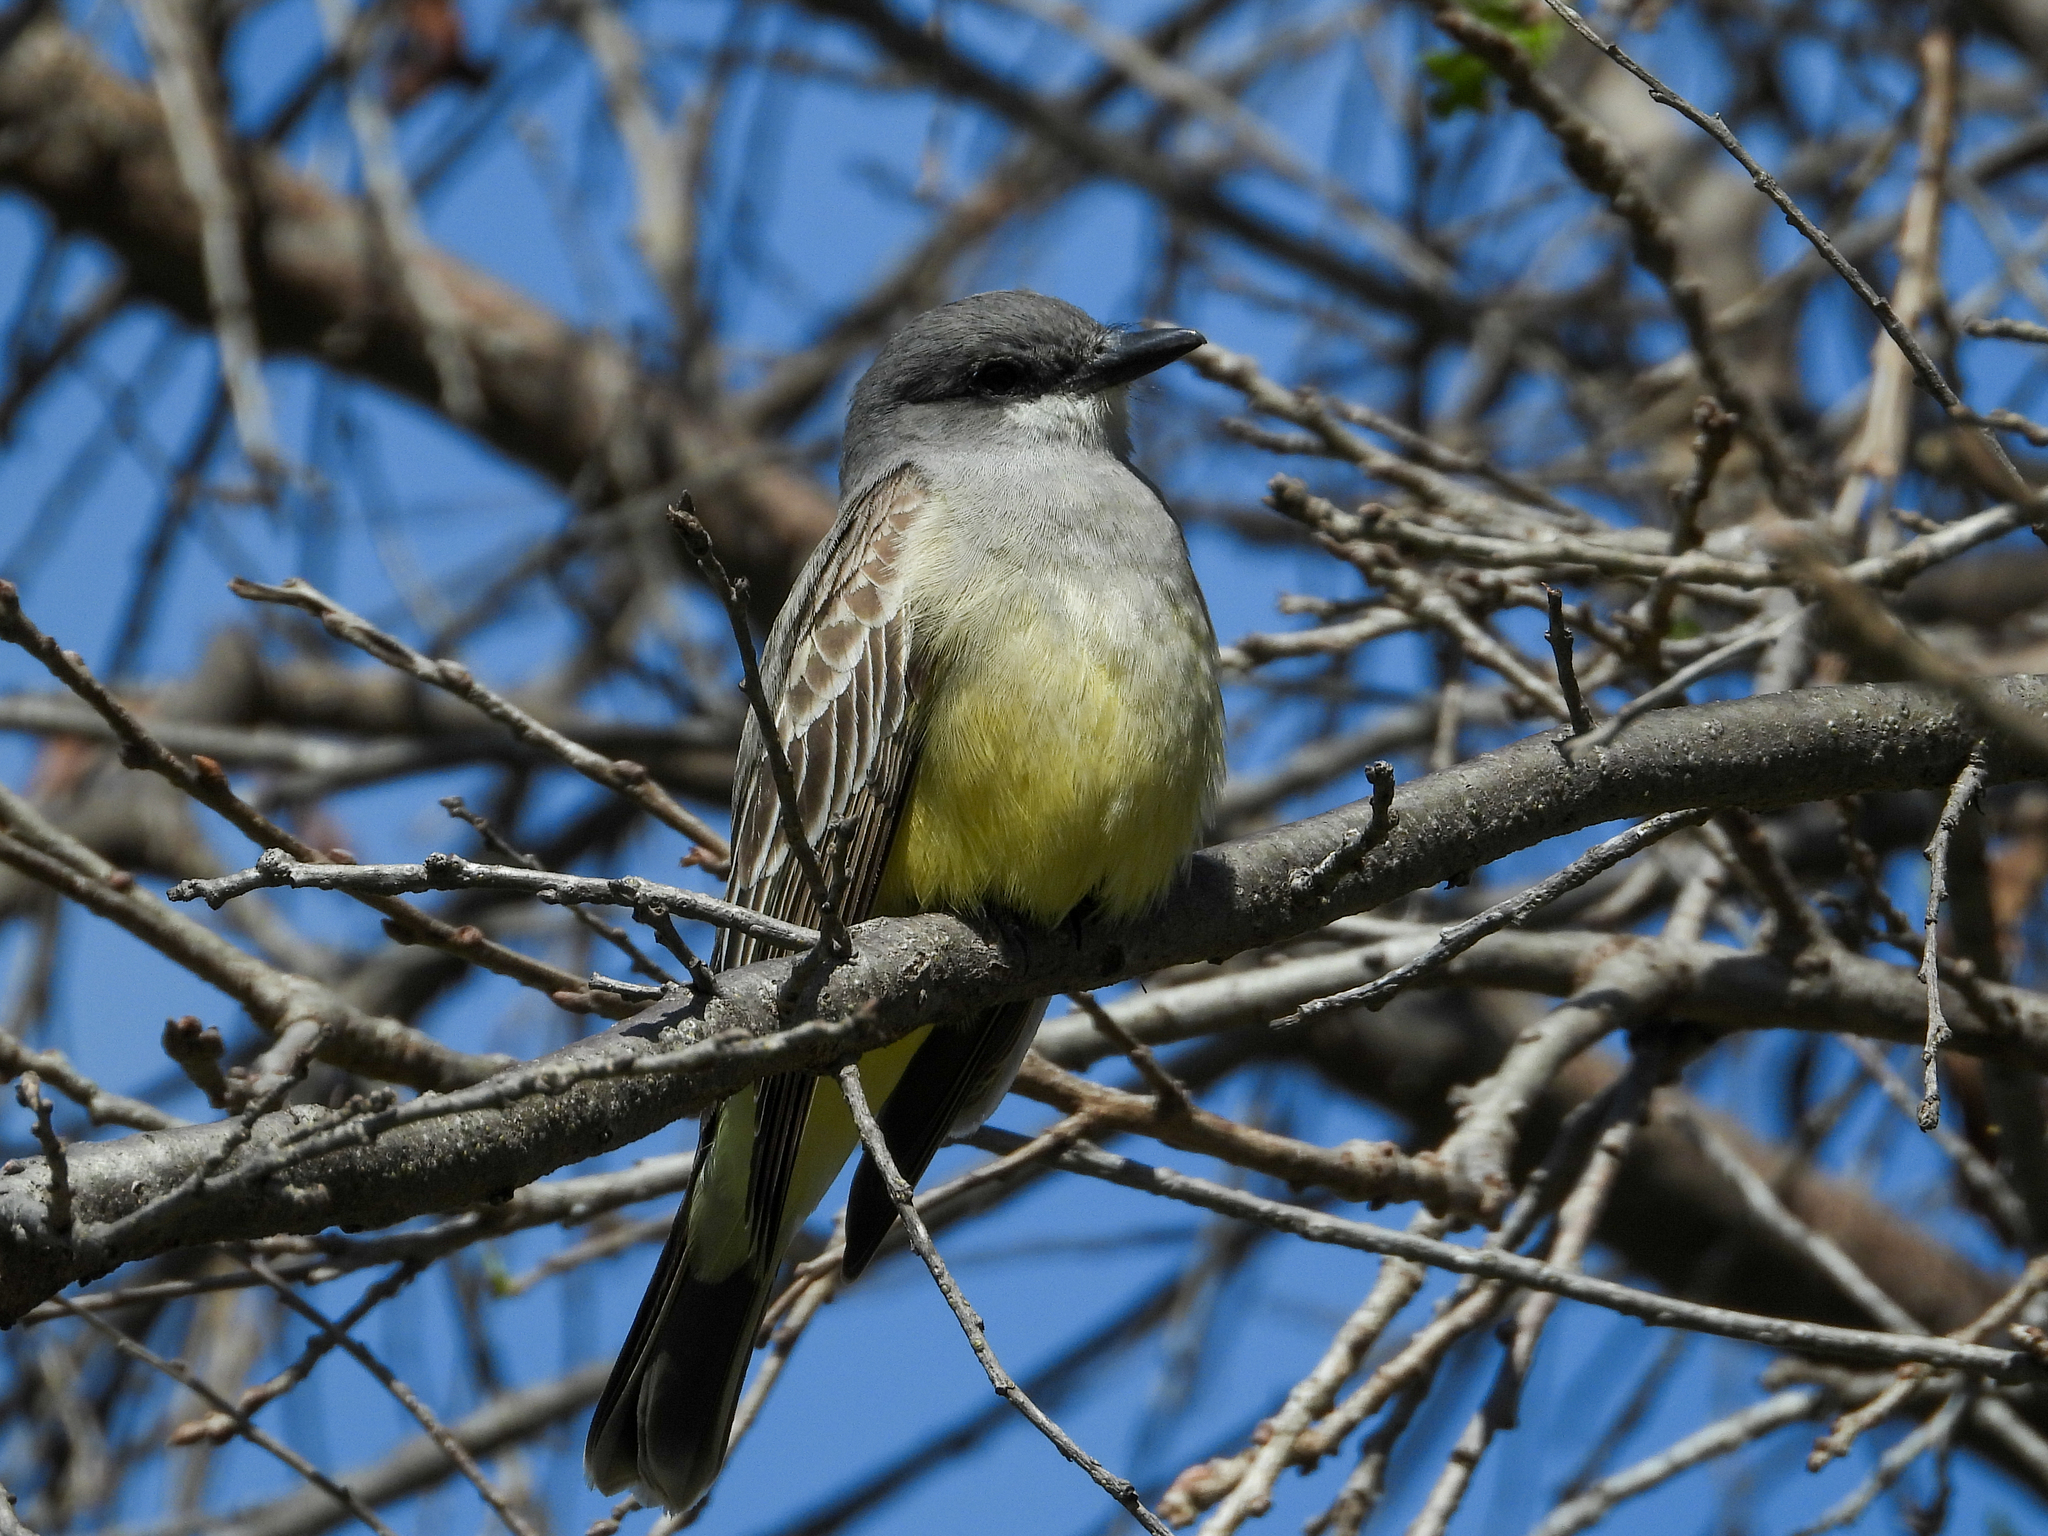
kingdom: Animalia
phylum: Chordata
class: Aves
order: Passeriformes
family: Tyrannidae
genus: Tyrannus
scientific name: Tyrannus vociferans
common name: Cassin's kingbird
